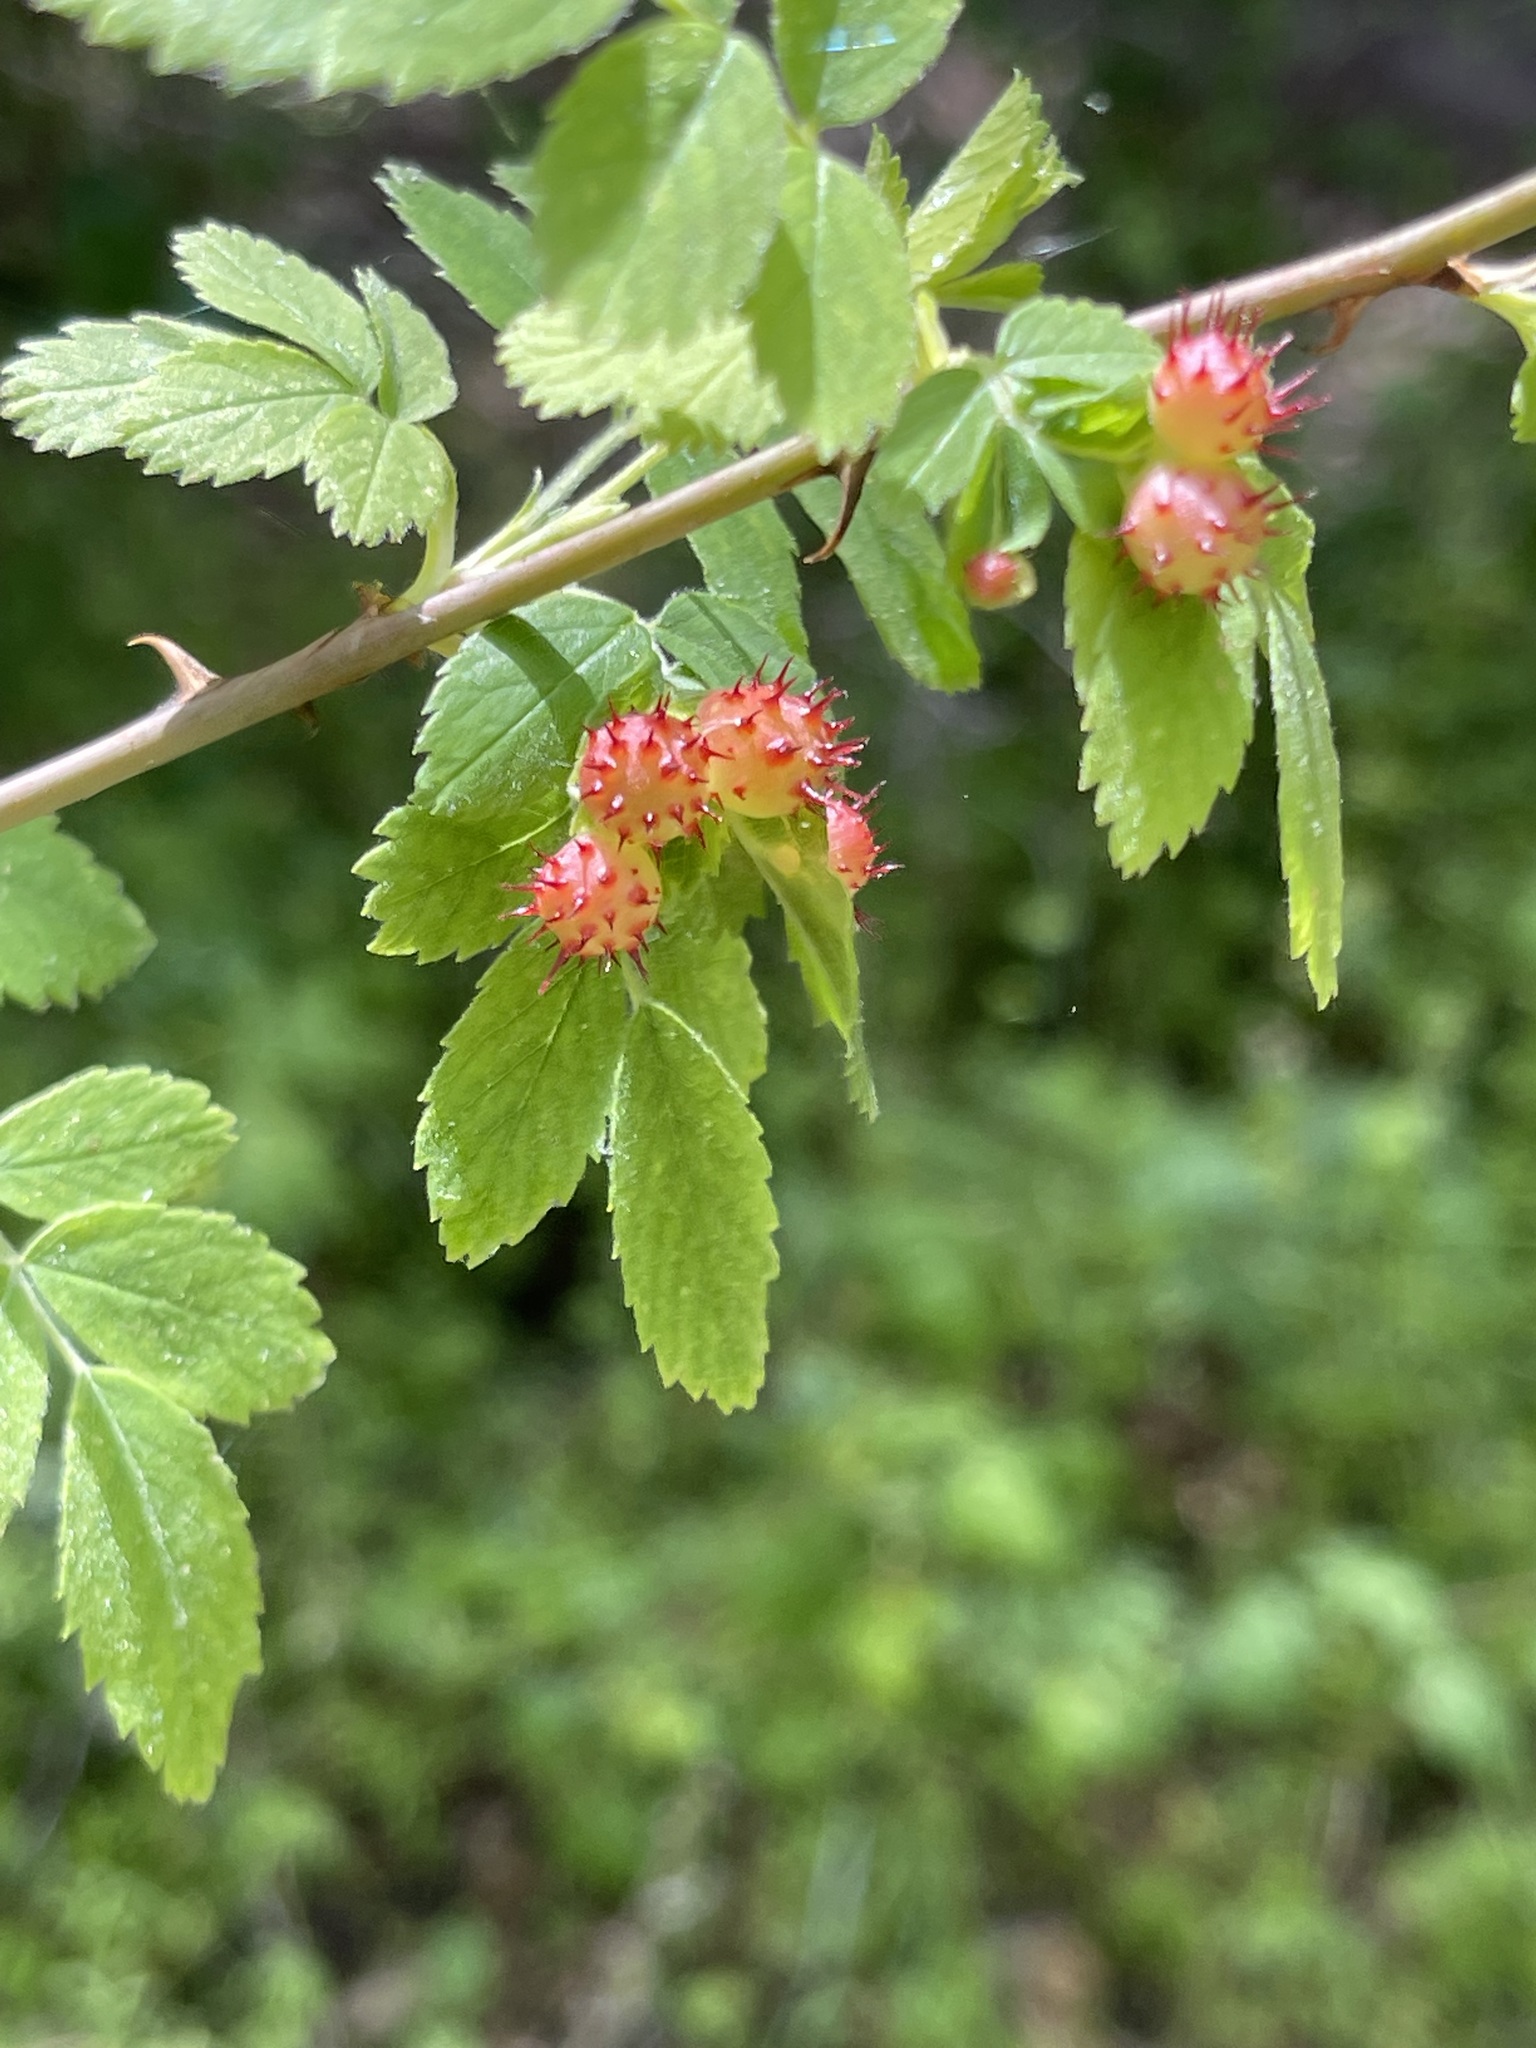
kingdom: Animalia
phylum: Arthropoda
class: Insecta
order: Hymenoptera
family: Cynipidae
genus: Diplolepis
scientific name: Diplolepis bicolor
